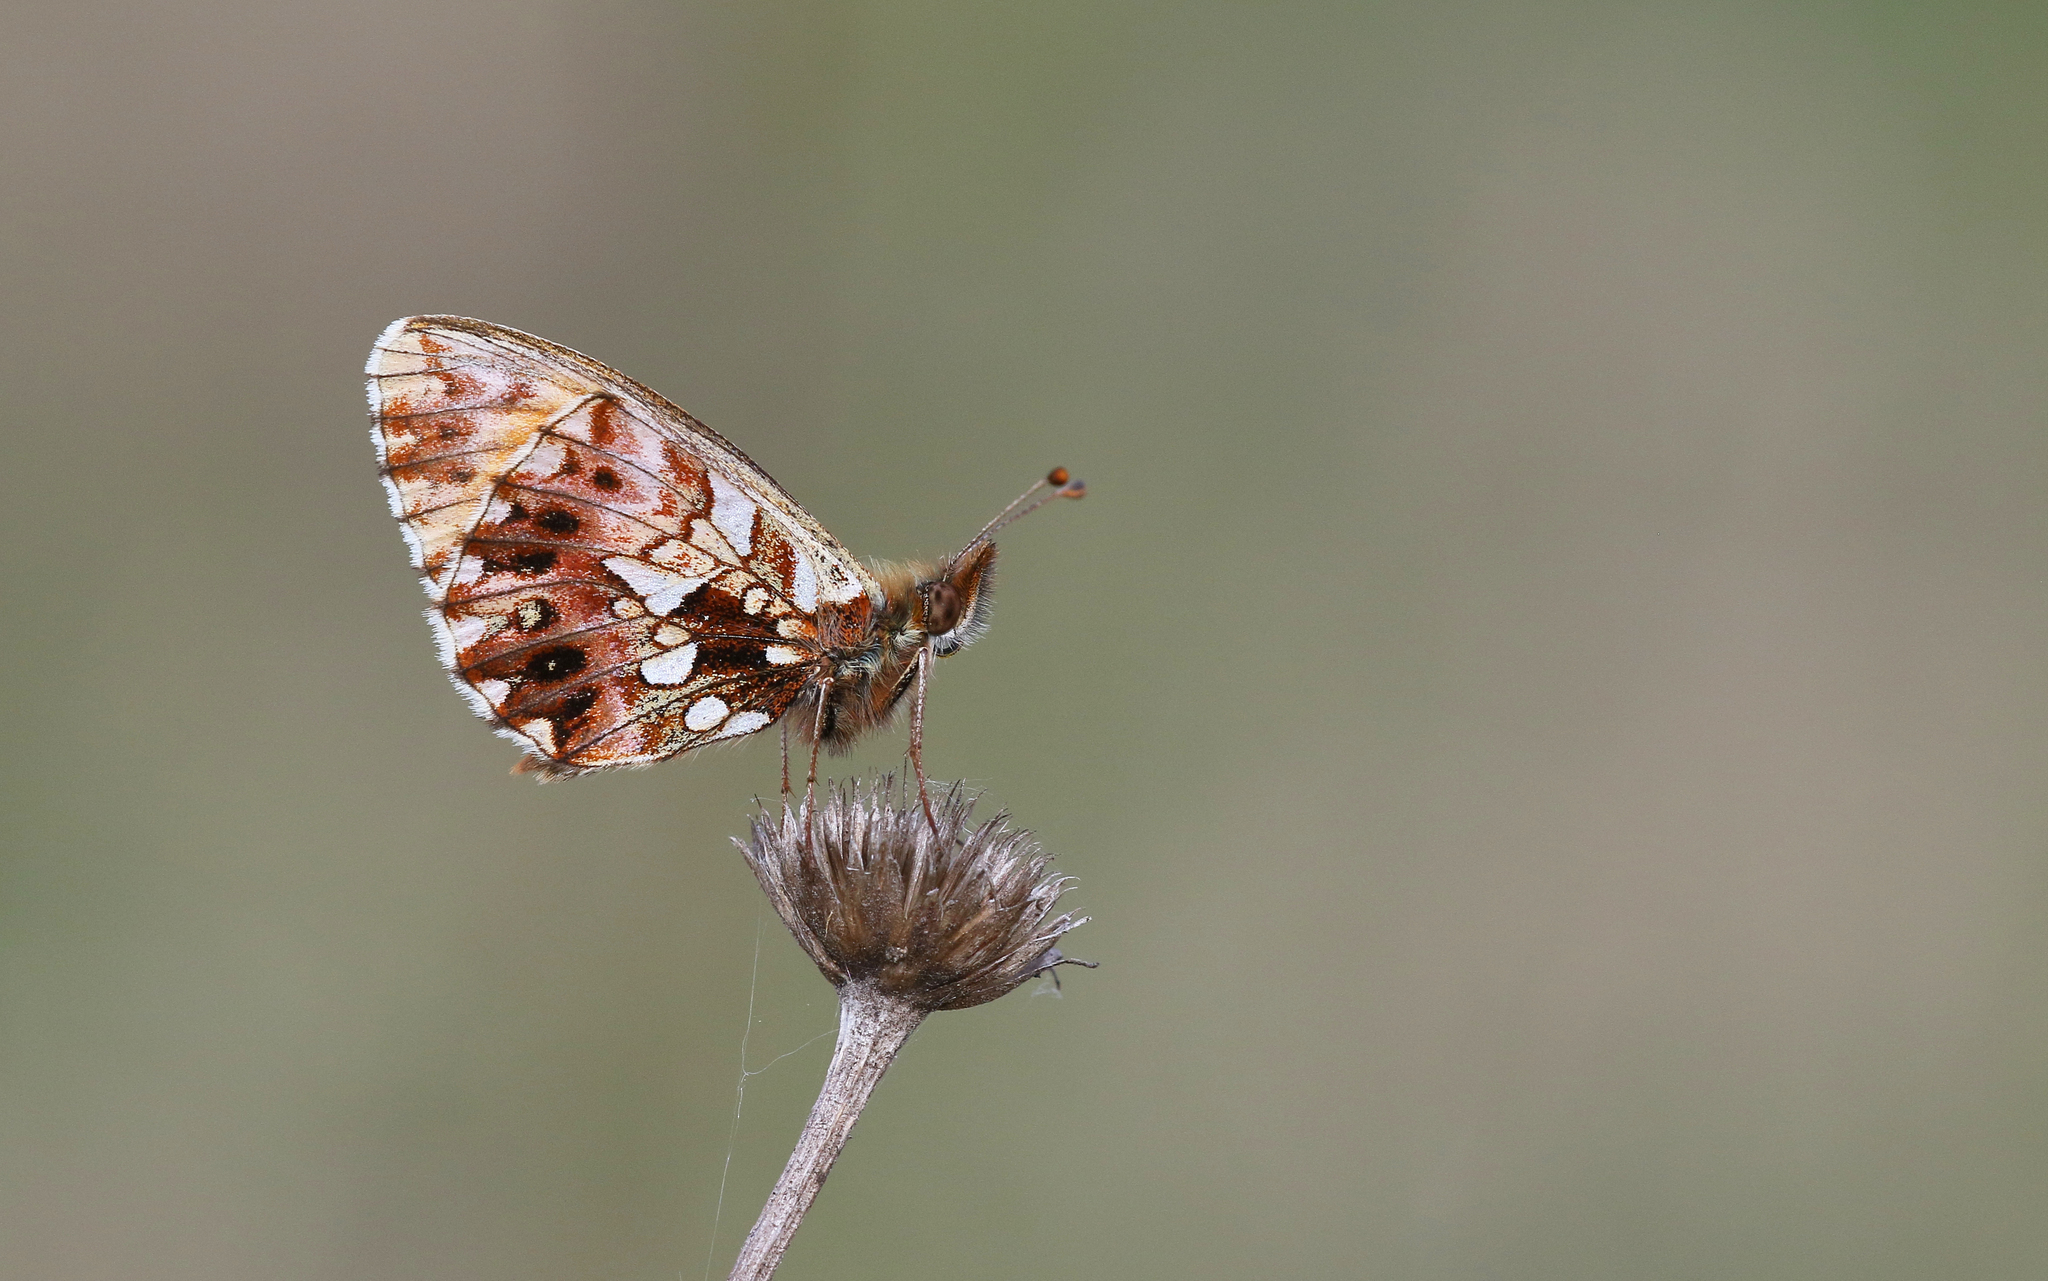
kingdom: Animalia
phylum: Arthropoda
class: Insecta
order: Lepidoptera
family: Nymphalidae
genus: Boloria
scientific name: Boloria dia
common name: Weaver's fritillary
